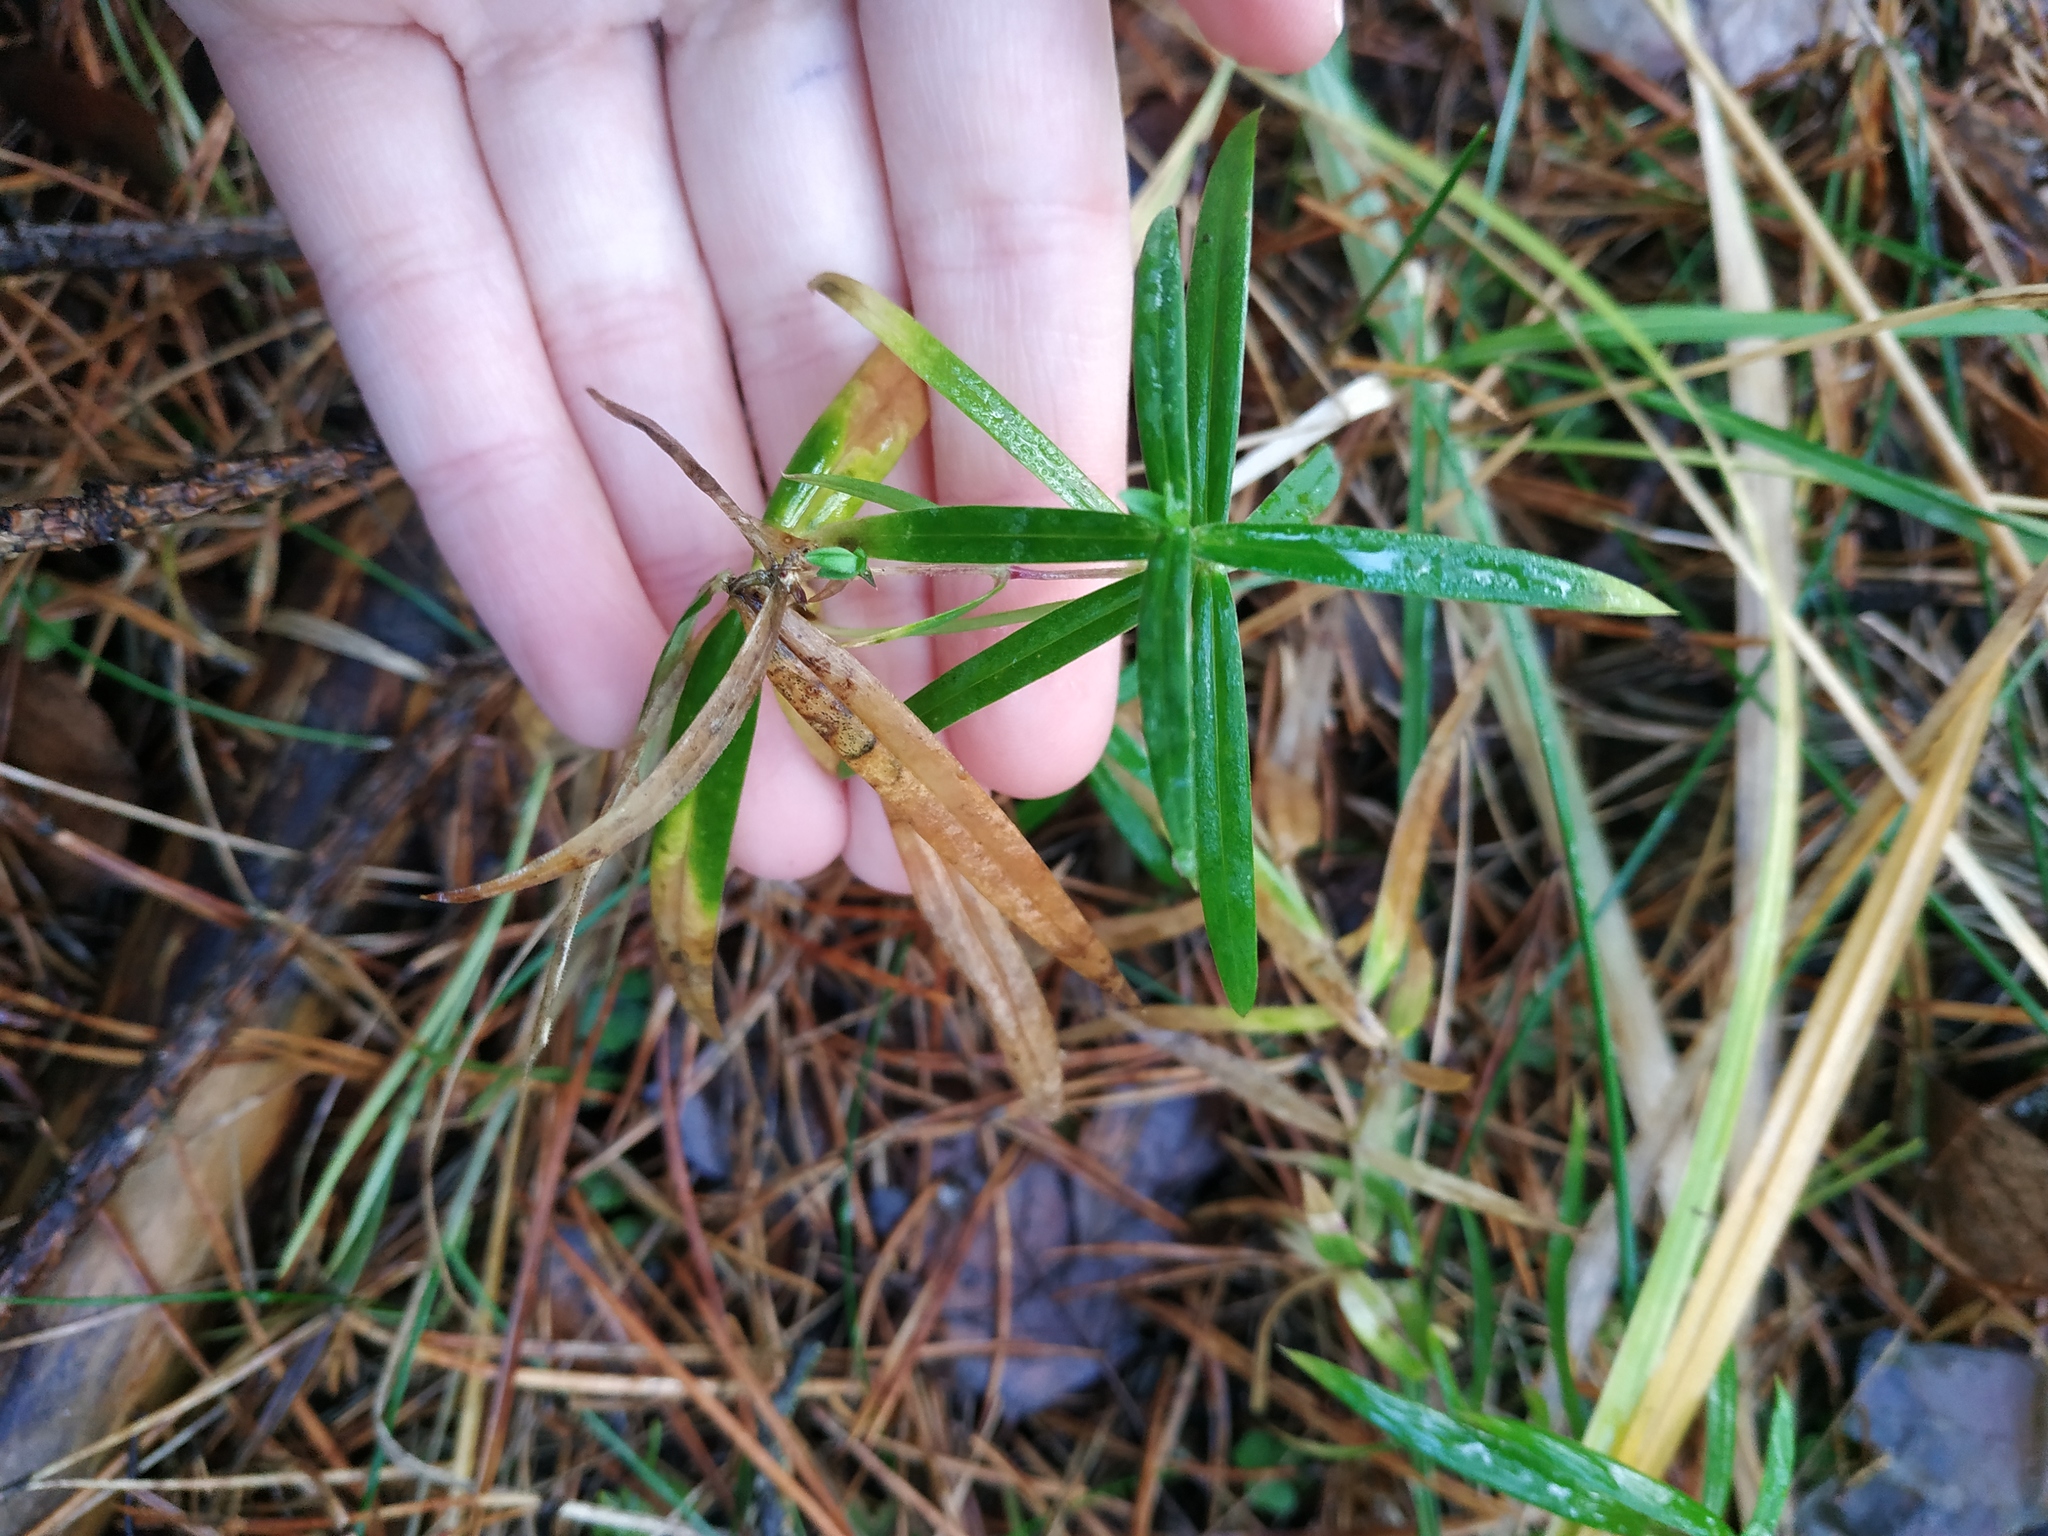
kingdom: Plantae
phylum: Tracheophyta
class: Magnoliopsida
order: Caryophyllales
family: Caryophyllaceae
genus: Rabelera
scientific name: Rabelera holostea
